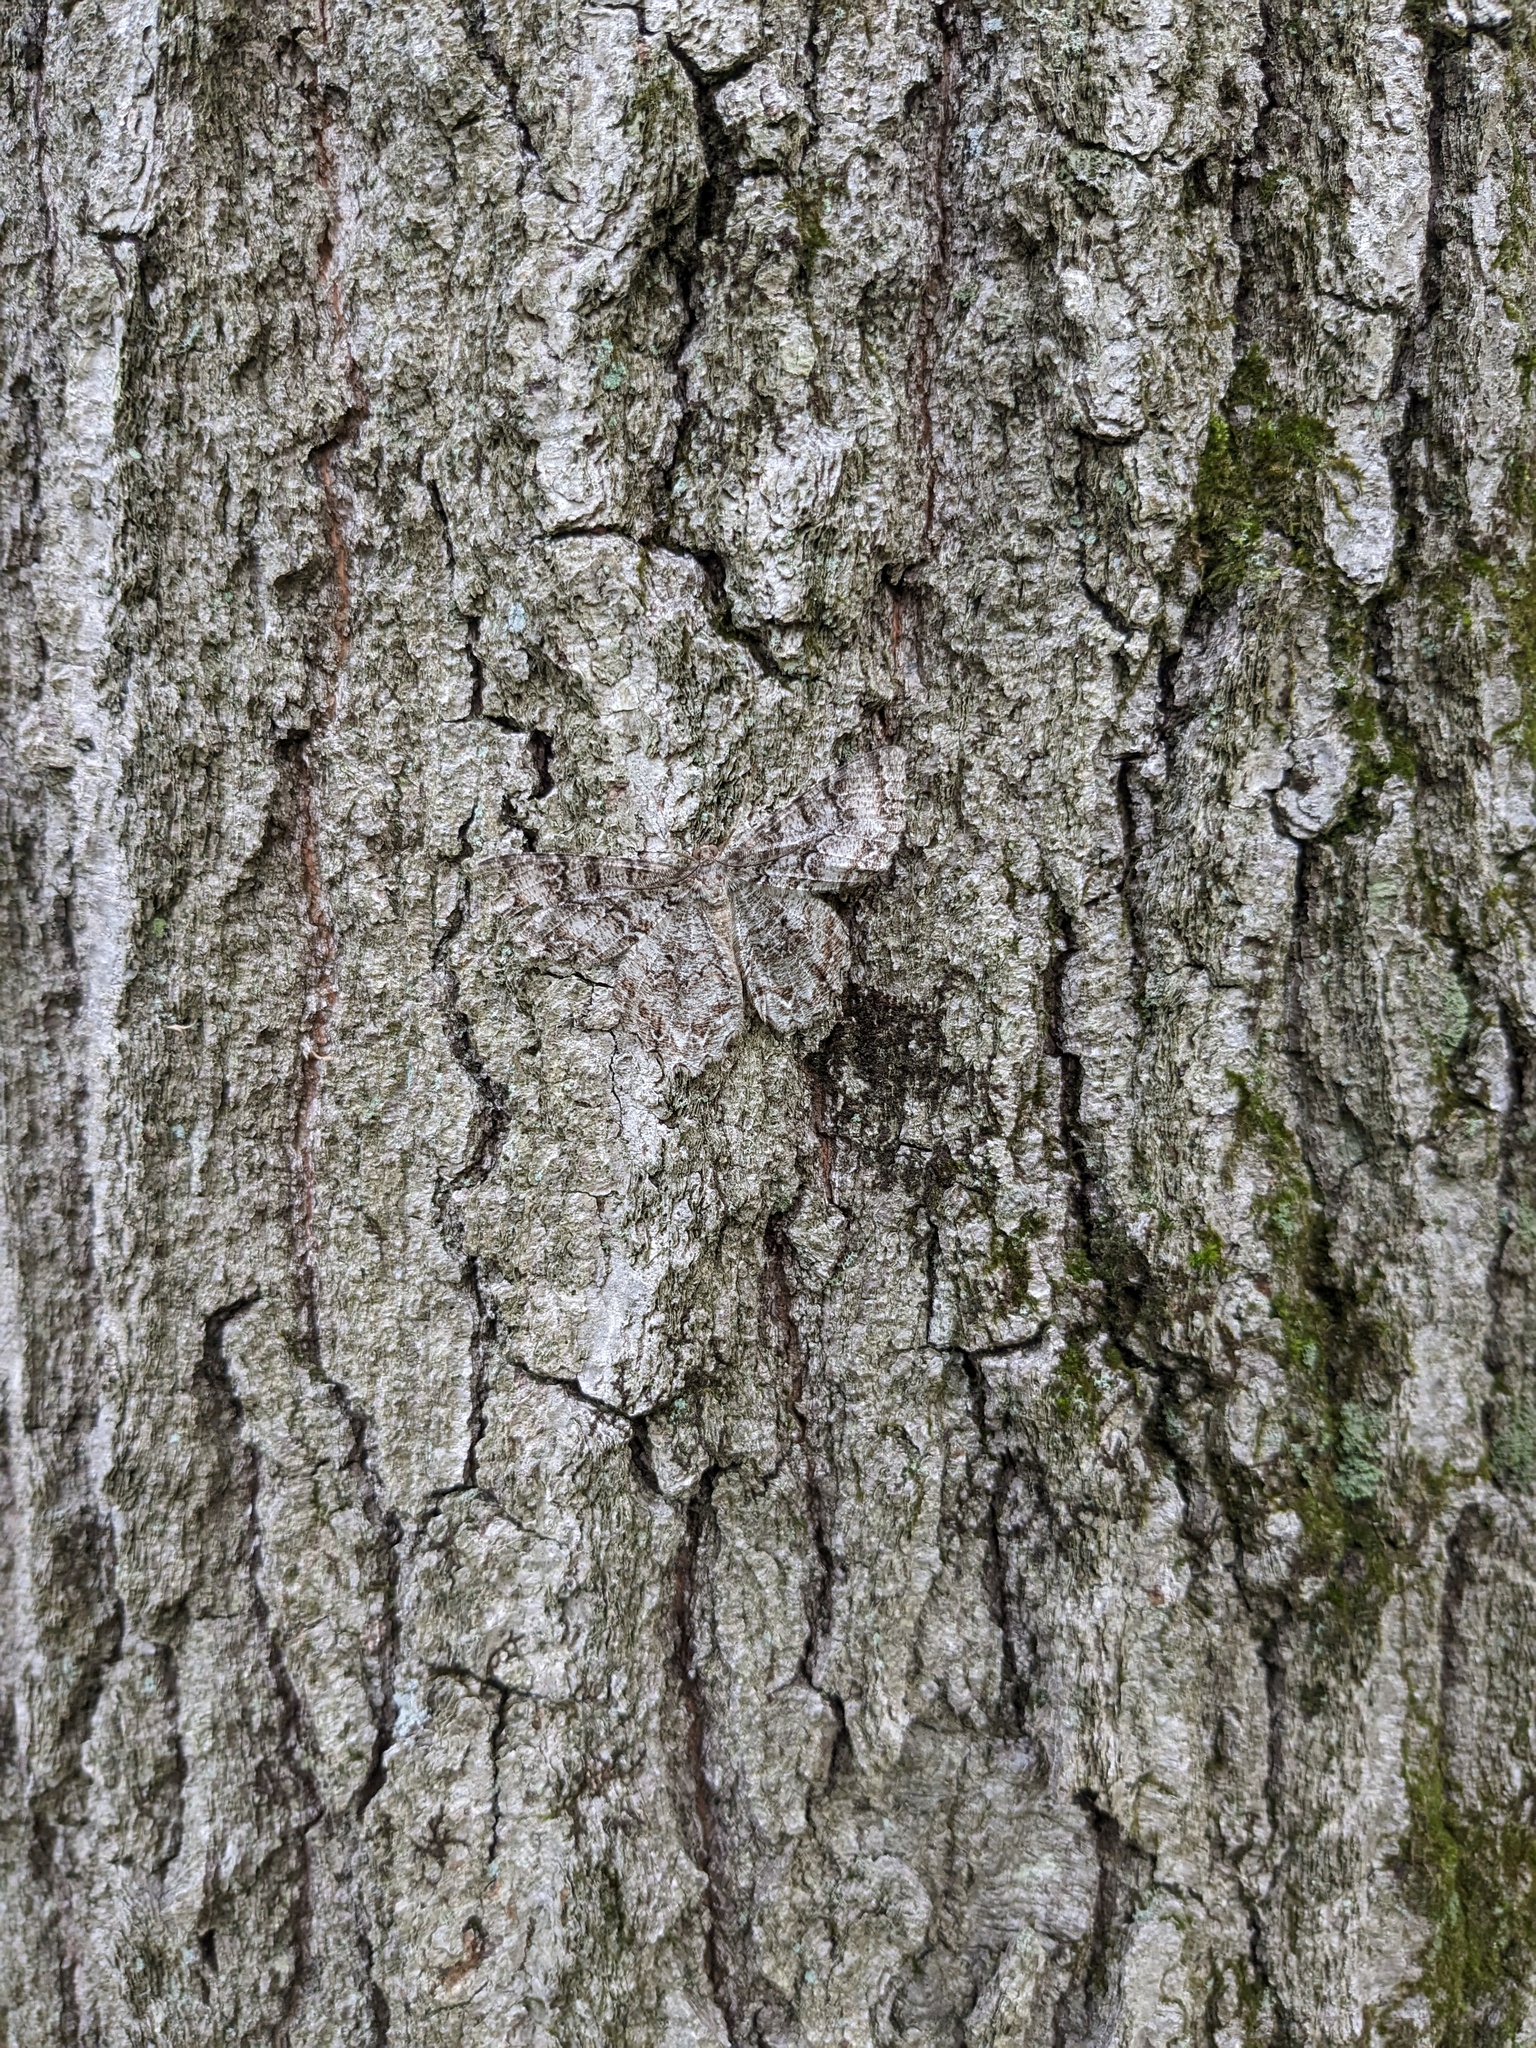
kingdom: Animalia
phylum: Arthropoda
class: Insecta
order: Lepidoptera
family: Geometridae
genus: Epimecis
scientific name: Epimecis hortaria
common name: Tulip-tree beauty
